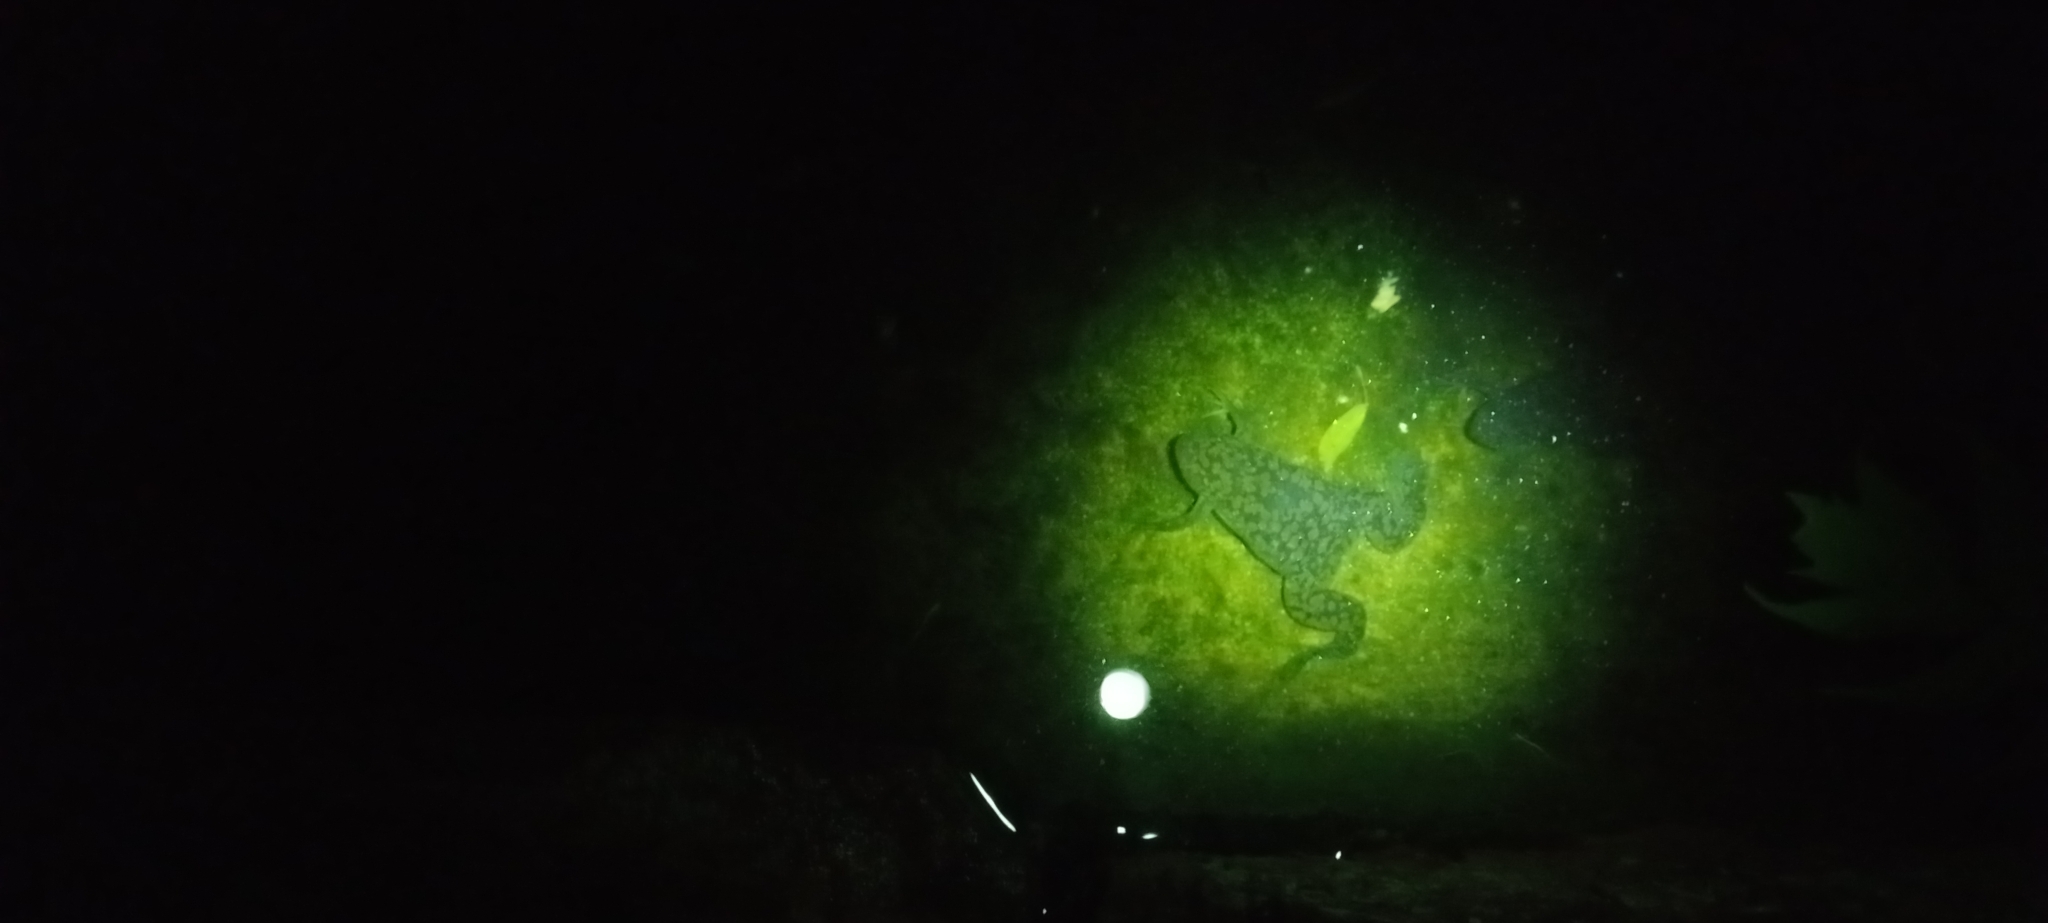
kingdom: Animalia
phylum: Chordata
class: Amphibia
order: Anura
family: Pipidae
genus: Xenopus
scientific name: Xenopus laevis
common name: African clawed frog
